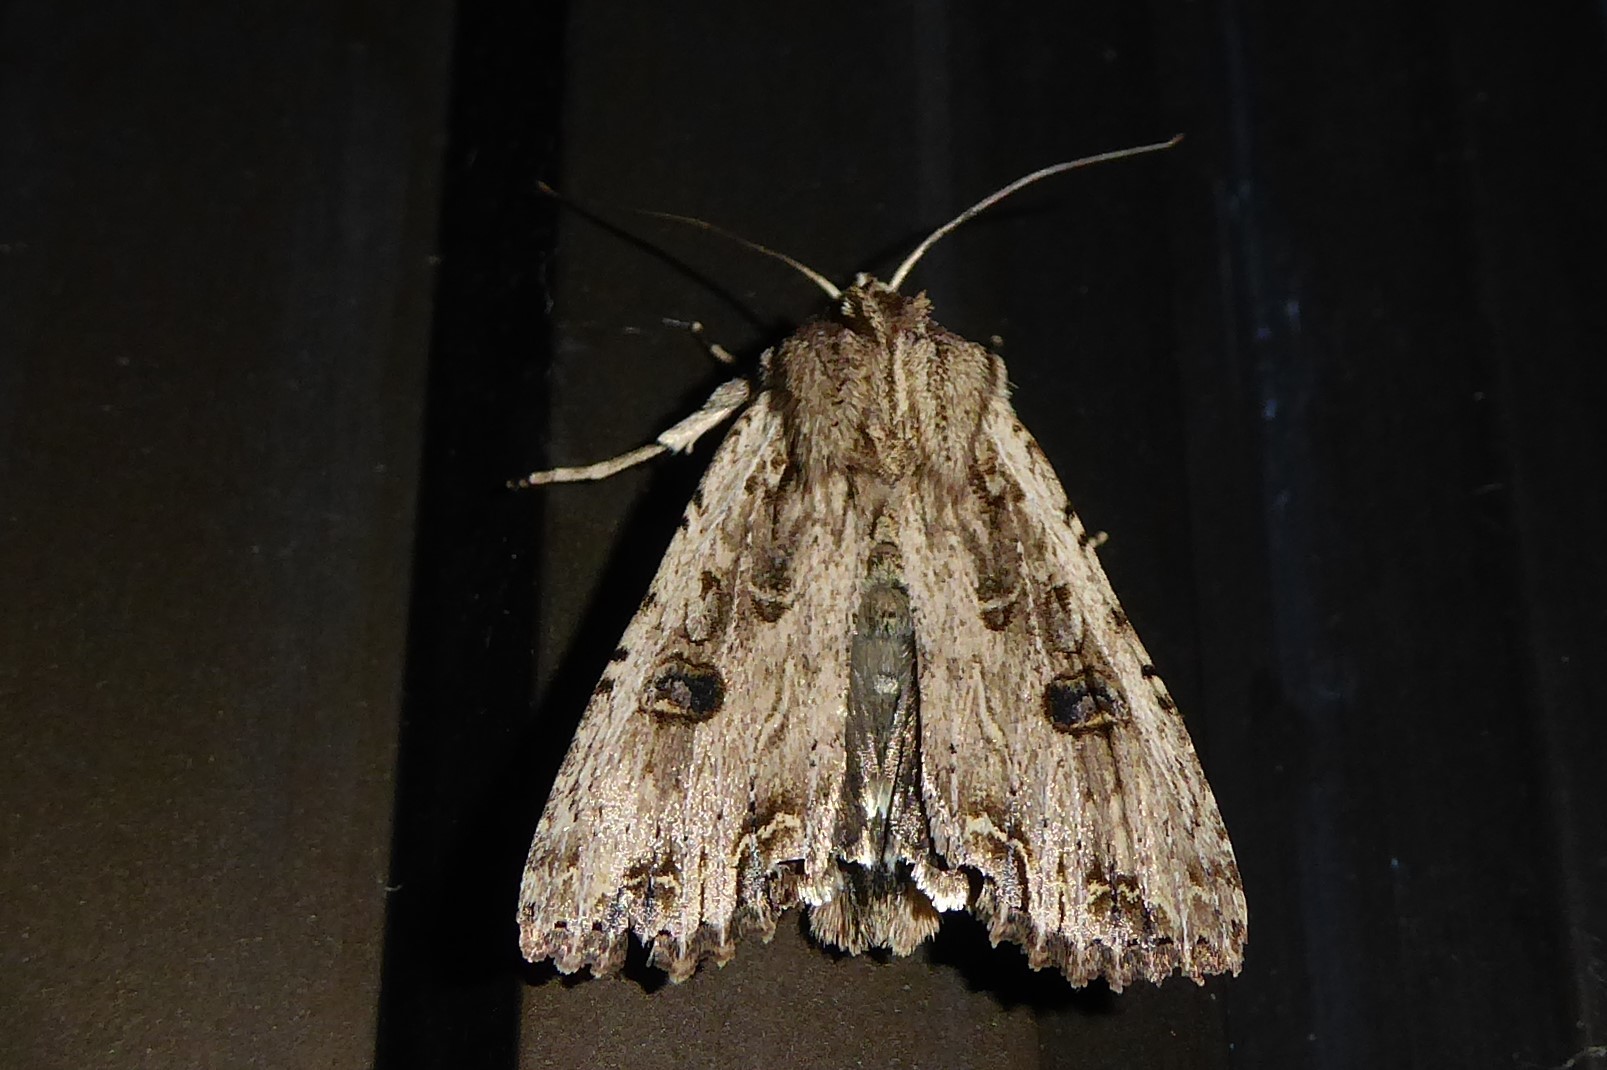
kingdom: Animalia
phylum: Arthropoda
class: Insecta
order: Lepidoptera
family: Noctuidae
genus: Ichneutica
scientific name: Ichneutica lignana
